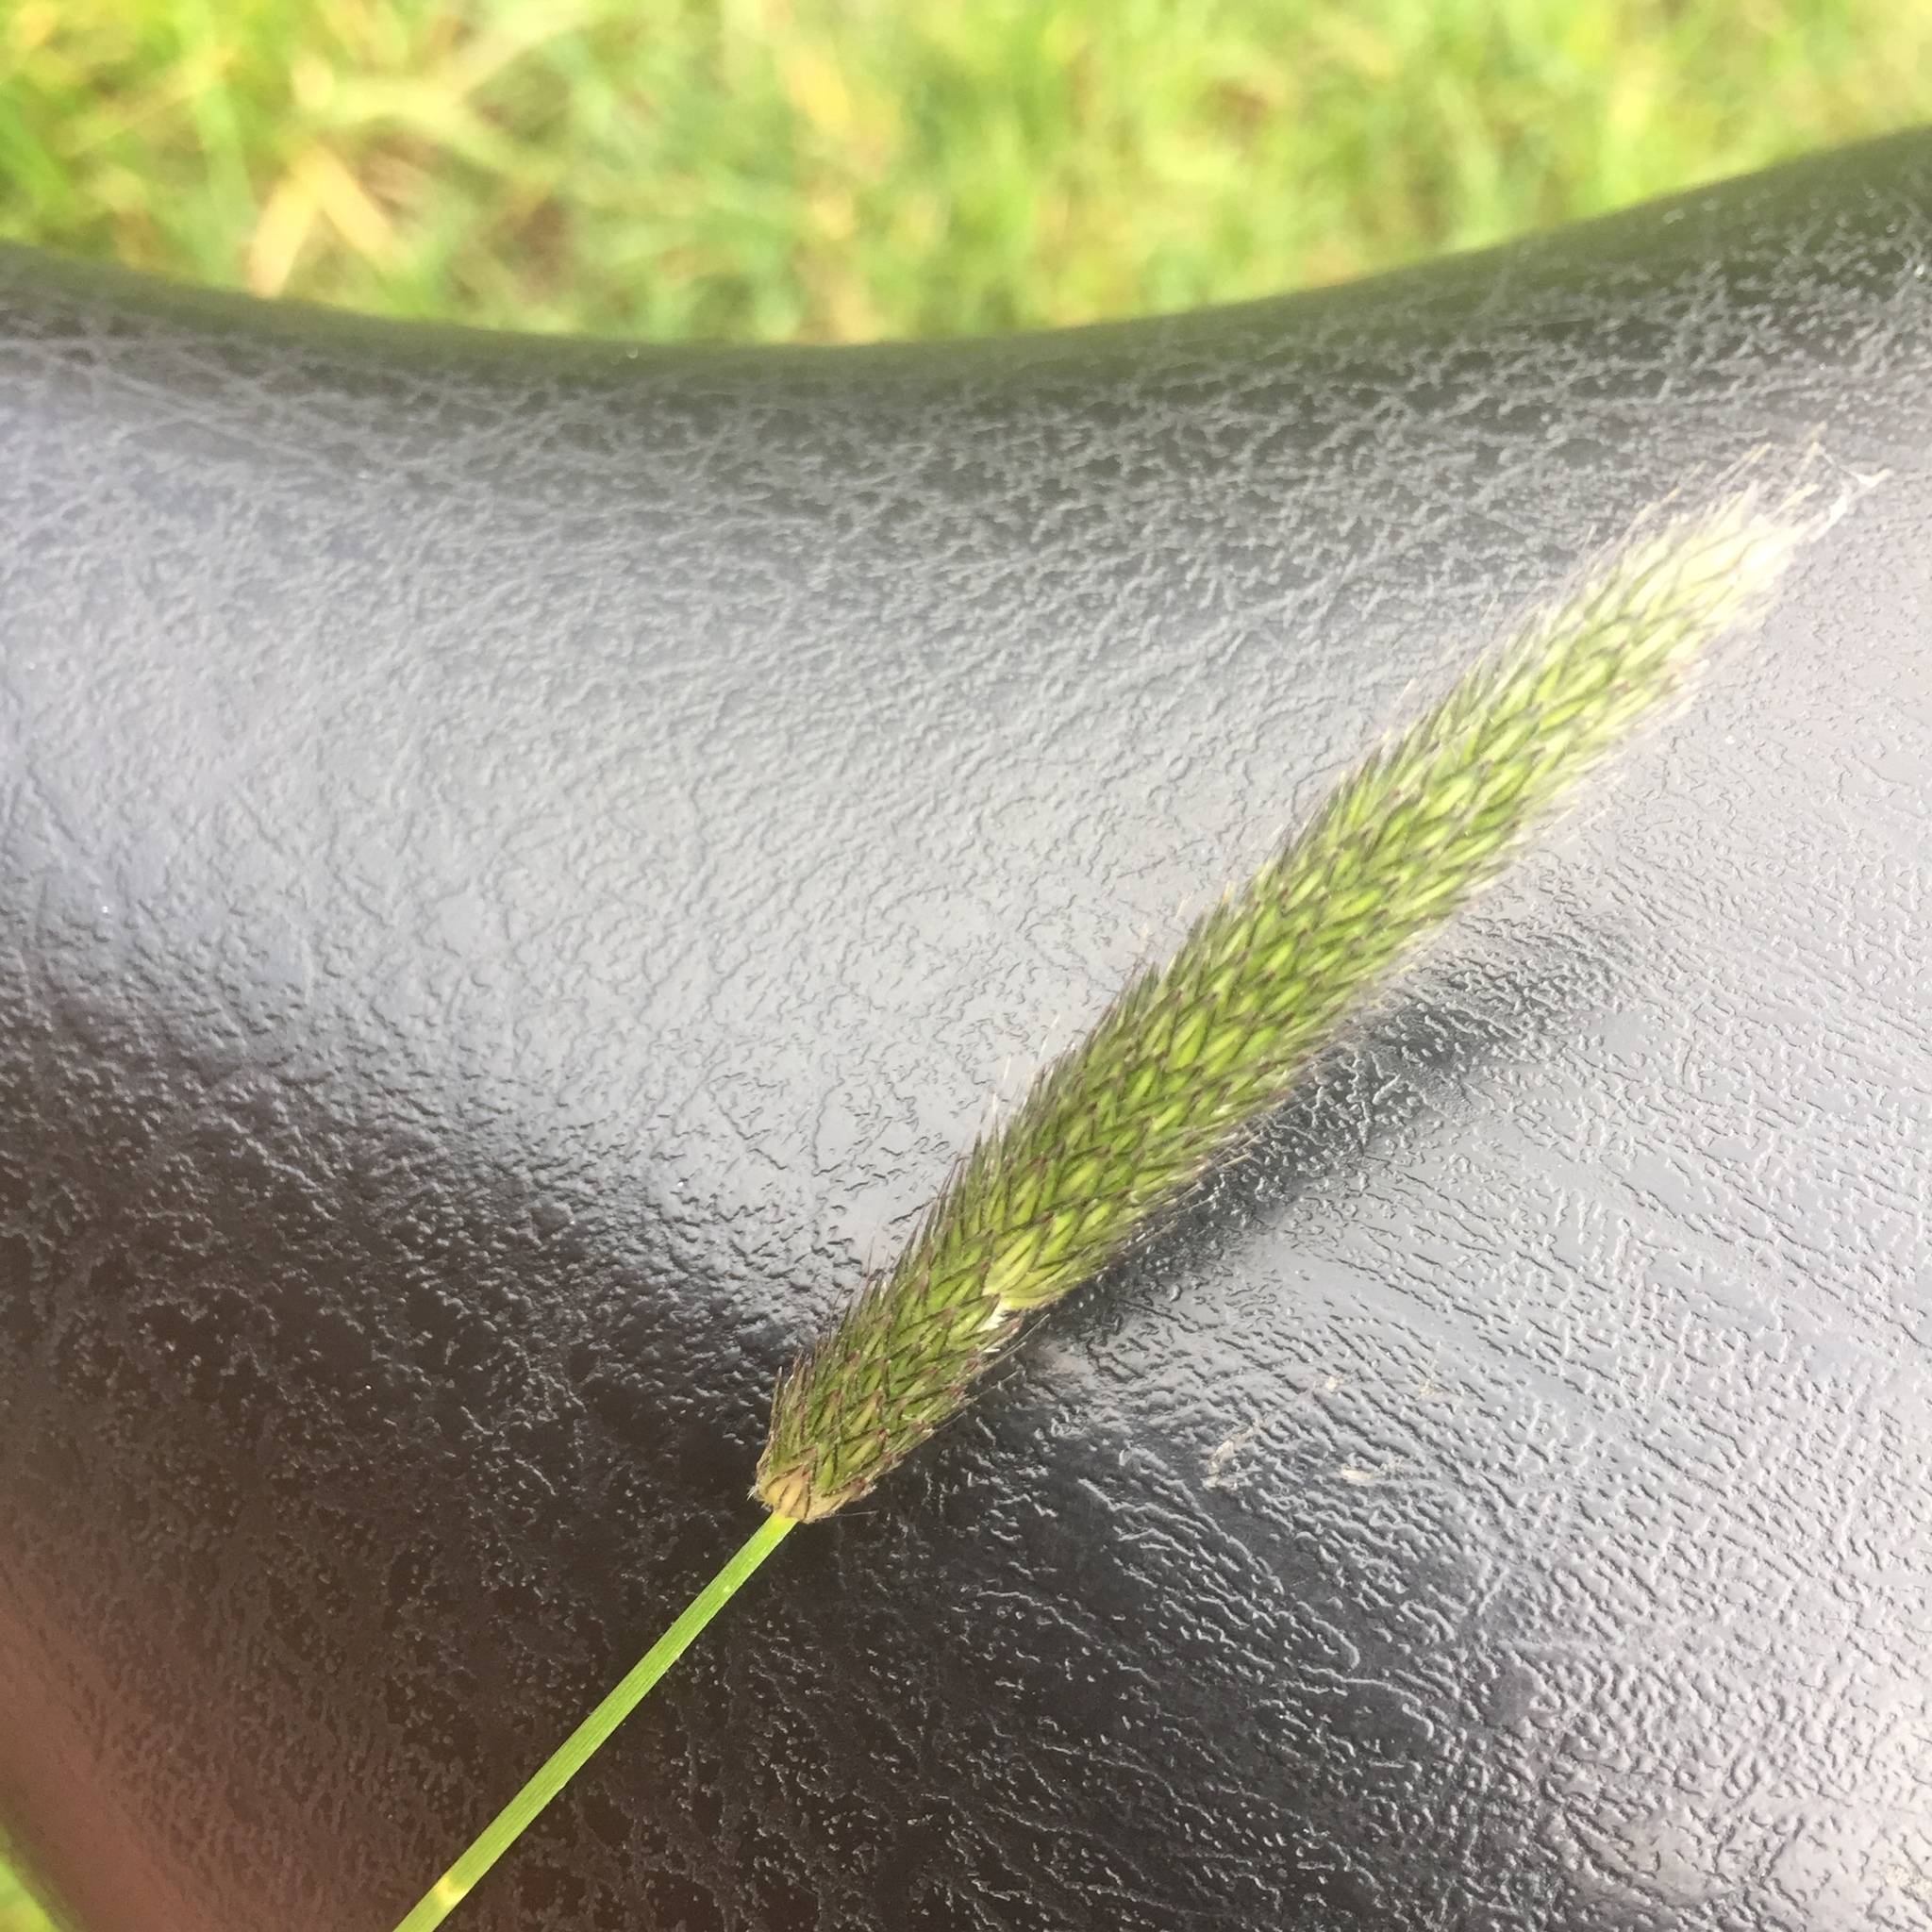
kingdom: Plantae
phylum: Tracheophyta
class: Liliopsida
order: Poales
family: Poaceae
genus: Alopecurus
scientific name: Alopecurus pratensis
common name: Meadow foxtail
